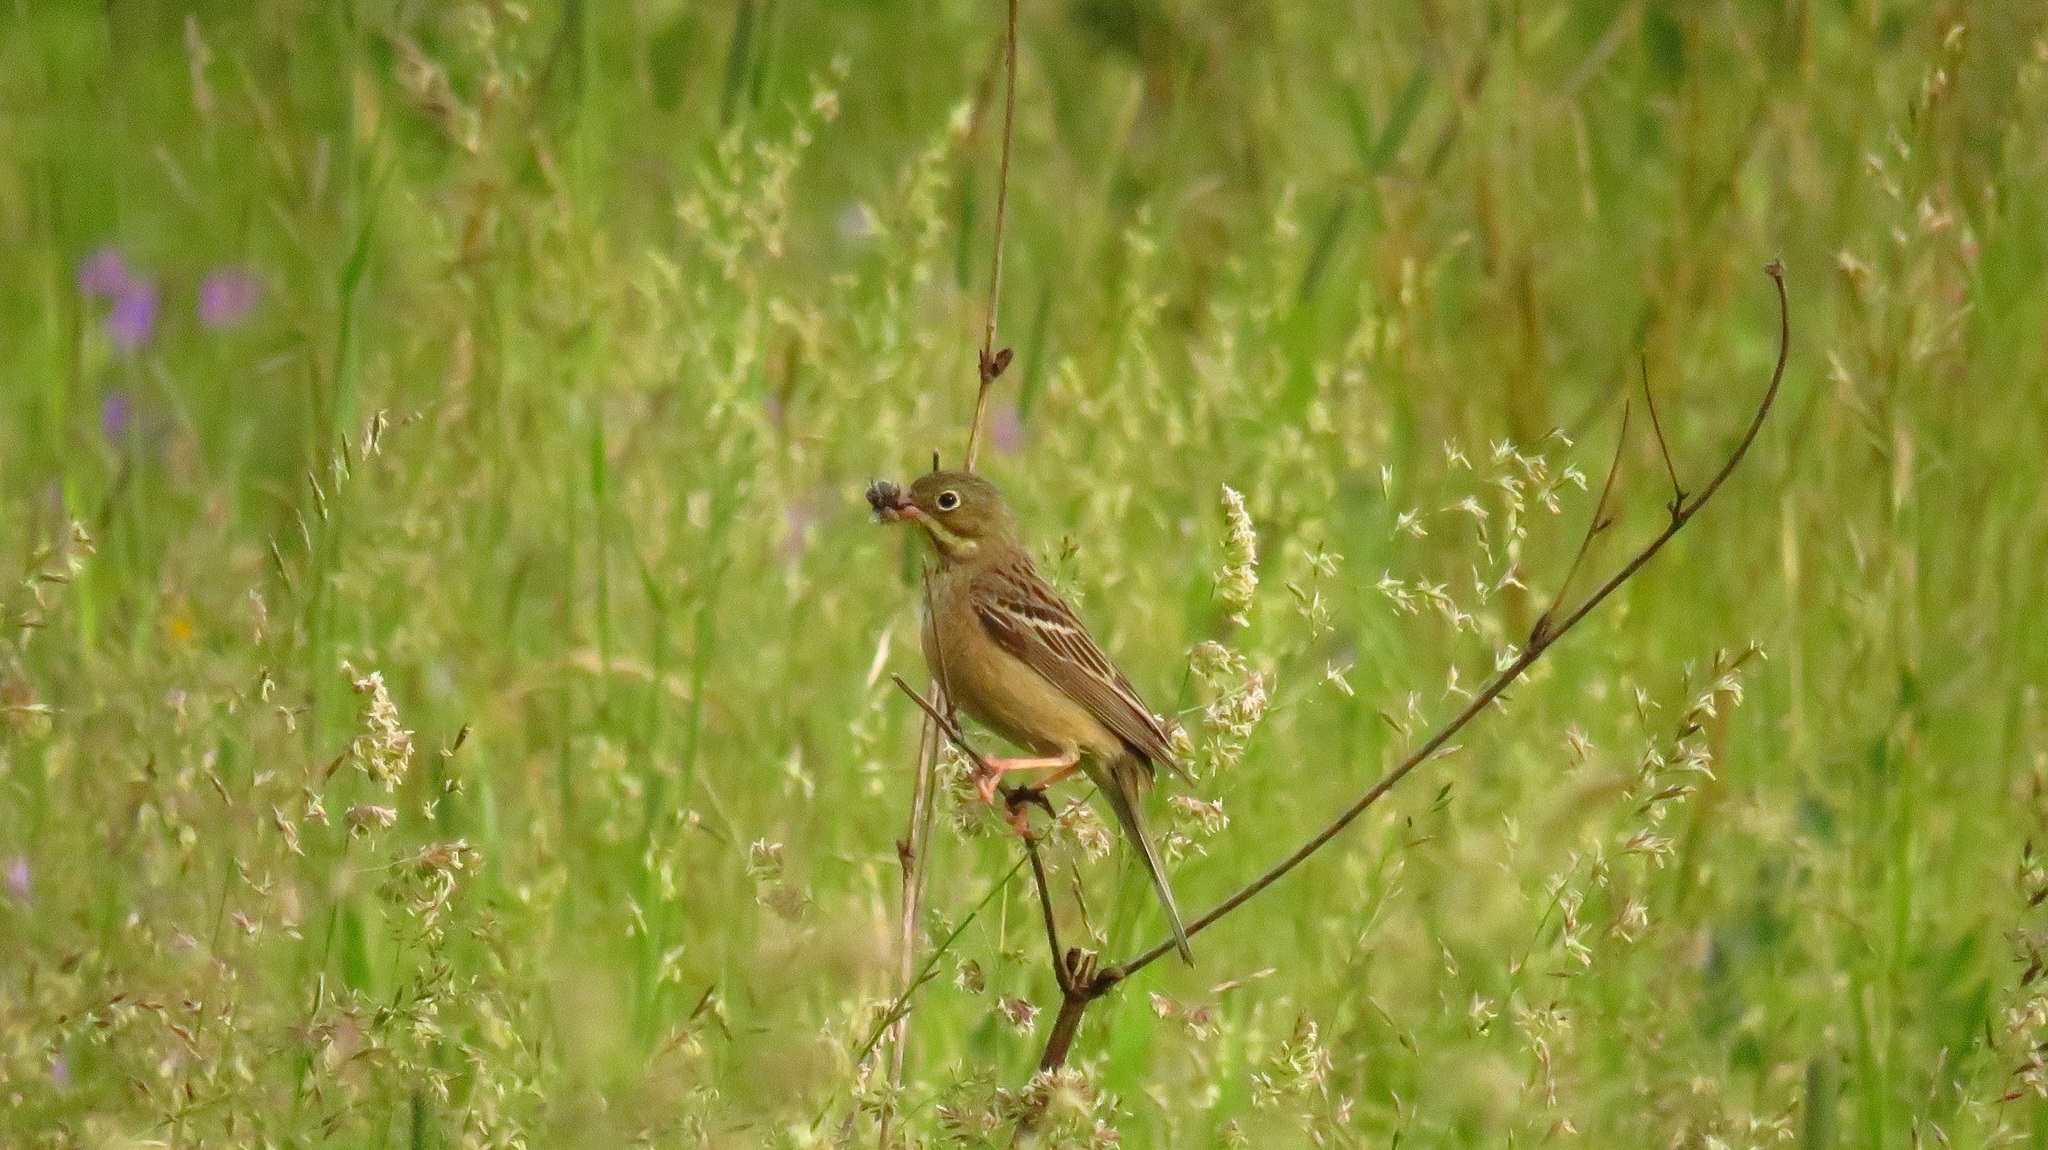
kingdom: Animalia
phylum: Chordata
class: Aves
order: Passeriformes
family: Emberizidae
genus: Emberiza
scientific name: Emberiza hortulana
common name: Ortolan bunting
